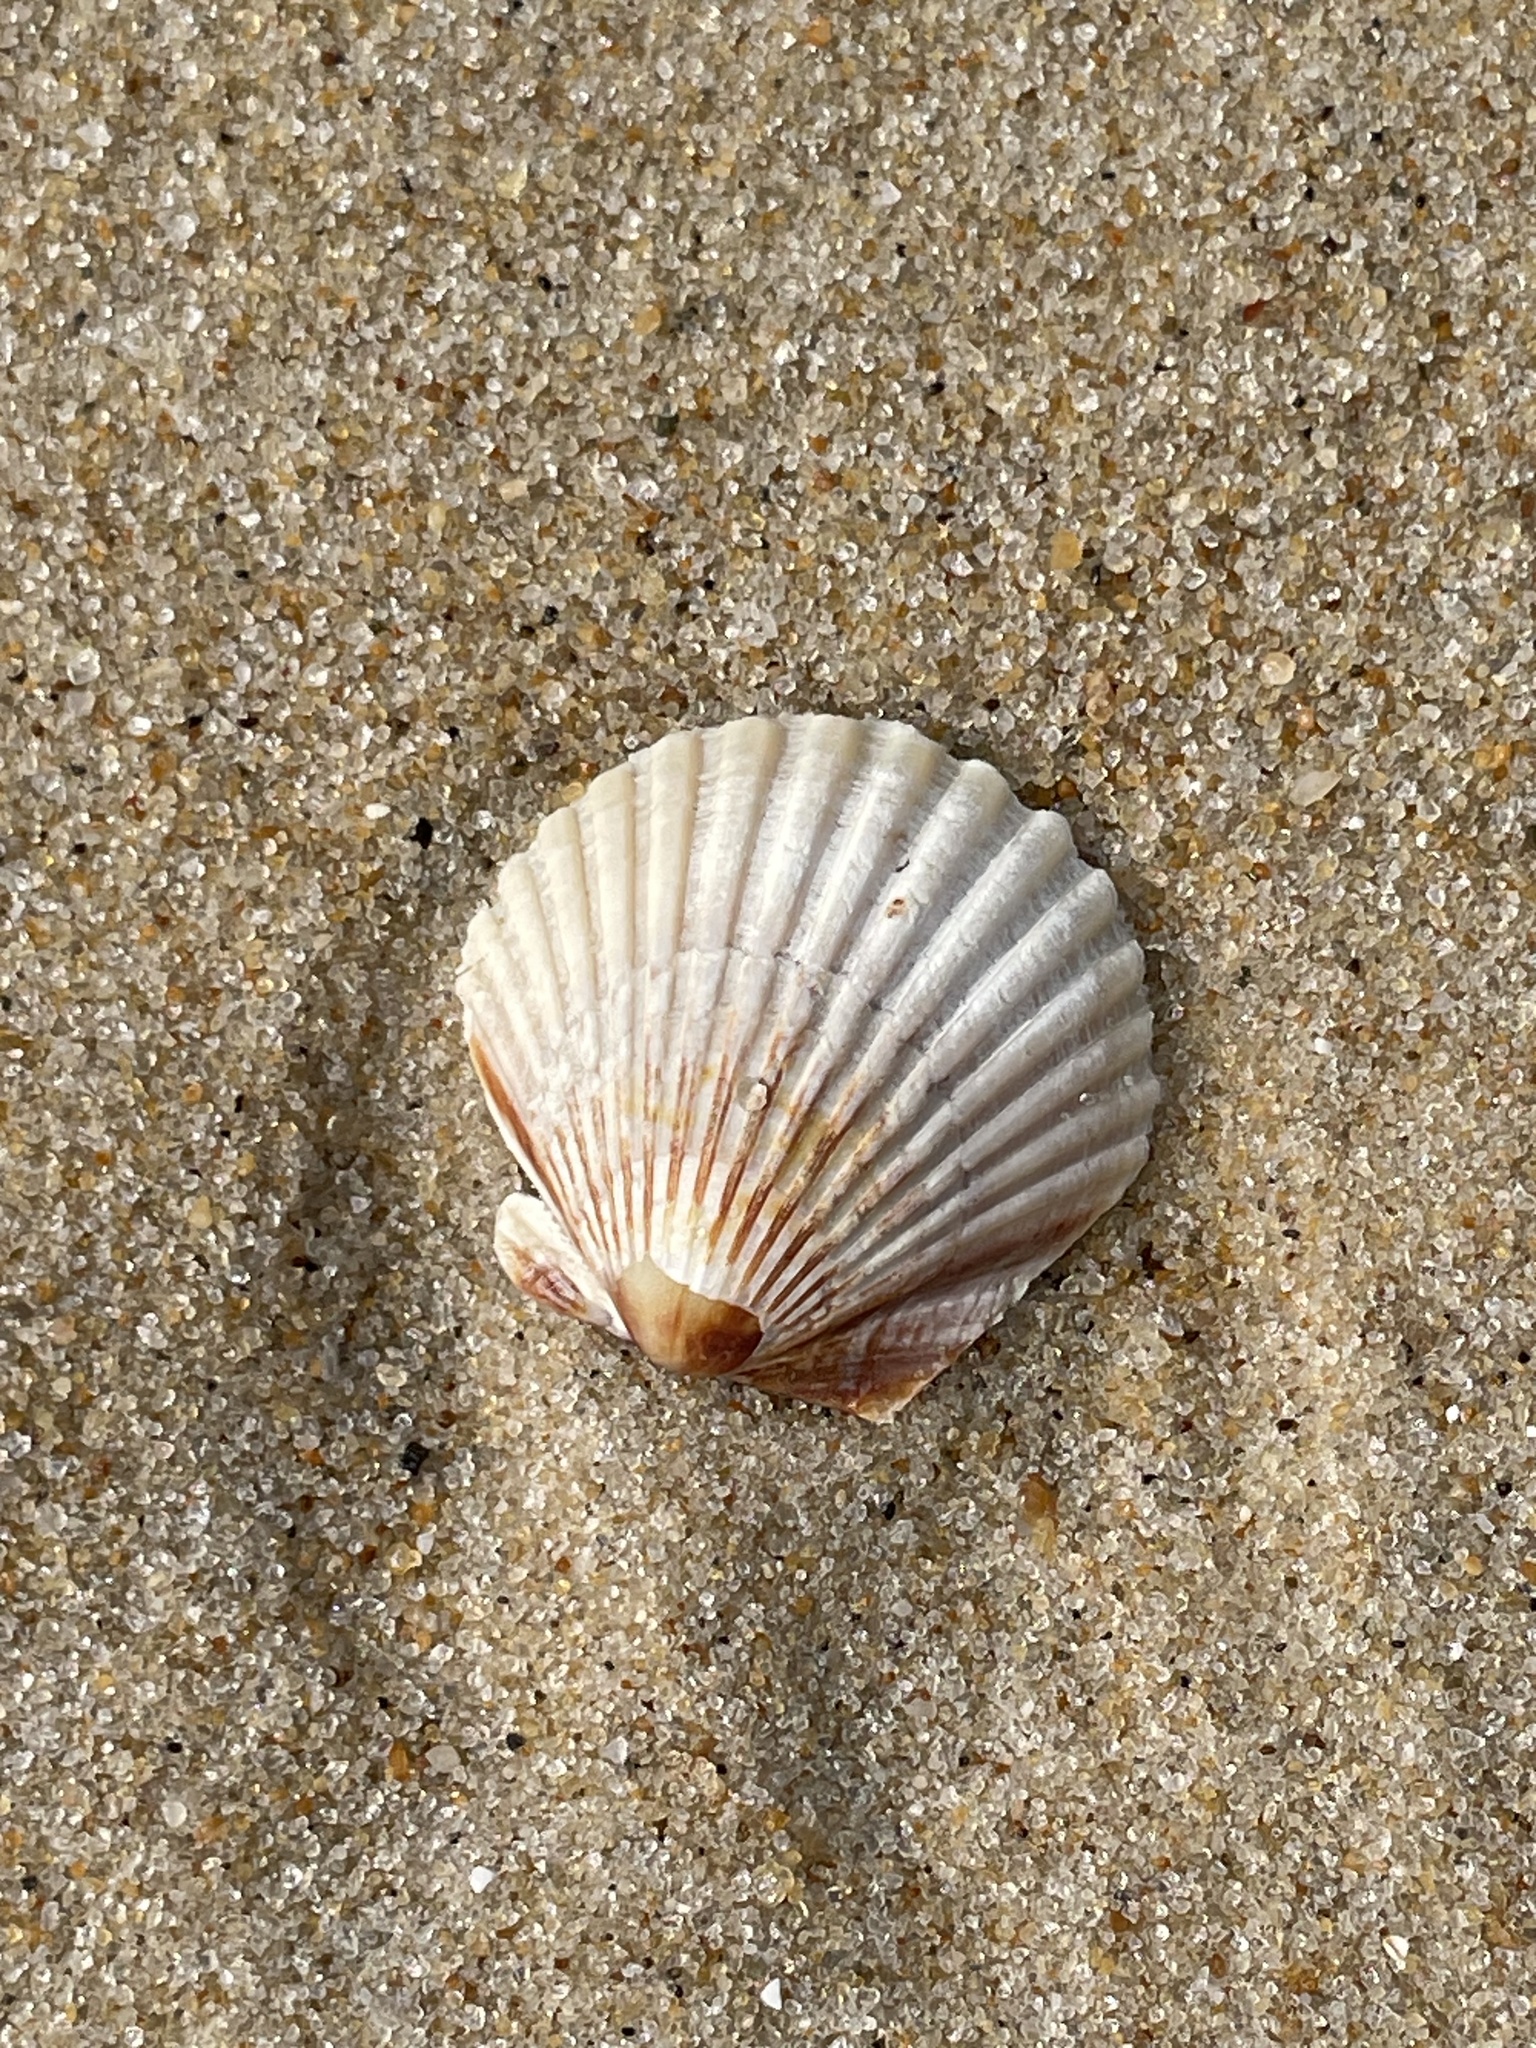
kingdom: Animalia
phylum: Mollusca
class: Bivalvia
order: Pectinida
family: Pectinidae
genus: Argopecten
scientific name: Argopecten irradians
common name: Atlantic bay scallop
